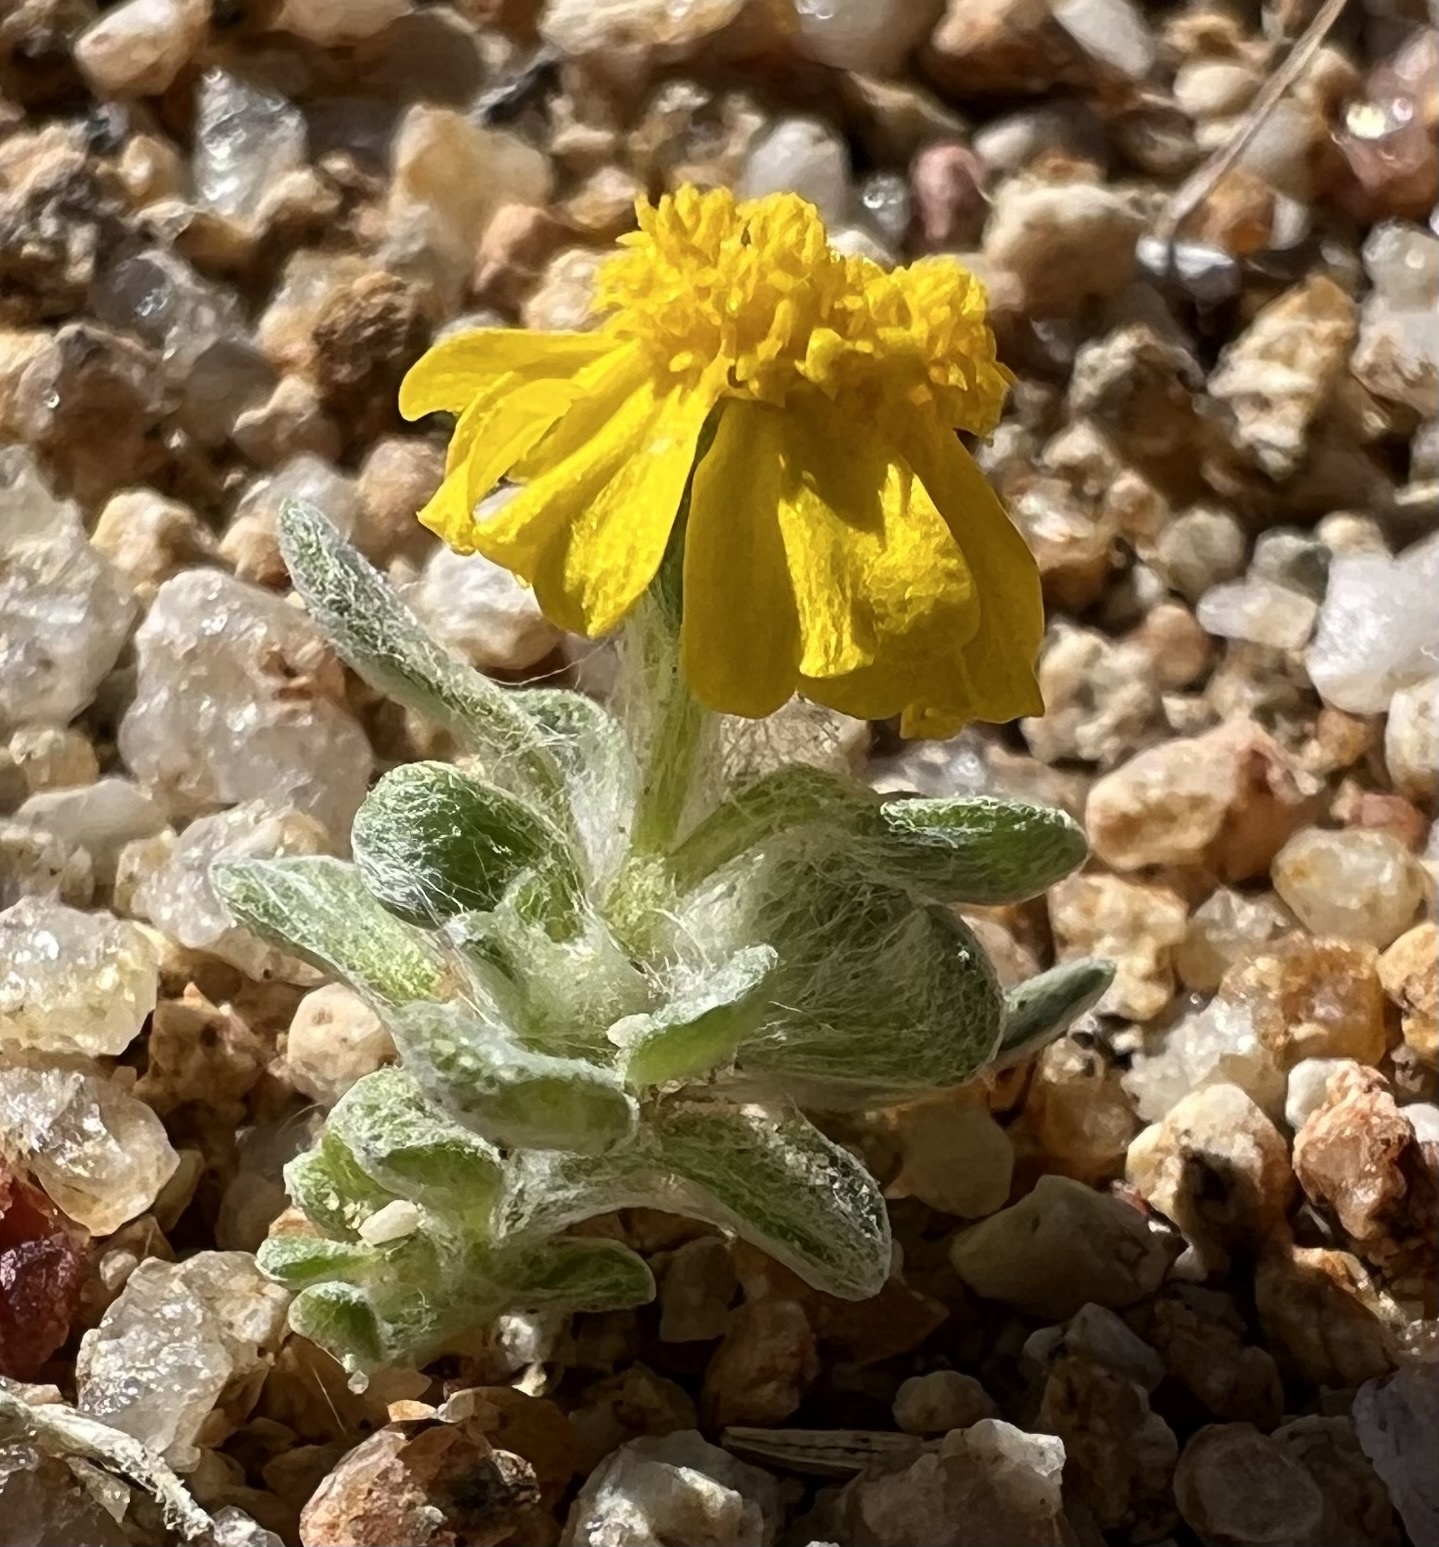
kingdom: Plantae
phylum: Tracheophyta
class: Magnoliopsida
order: Asterales
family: Asteraceae
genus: Eriophyllum
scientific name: Eriophyllum wallacei
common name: Wallace's woolly daisy
